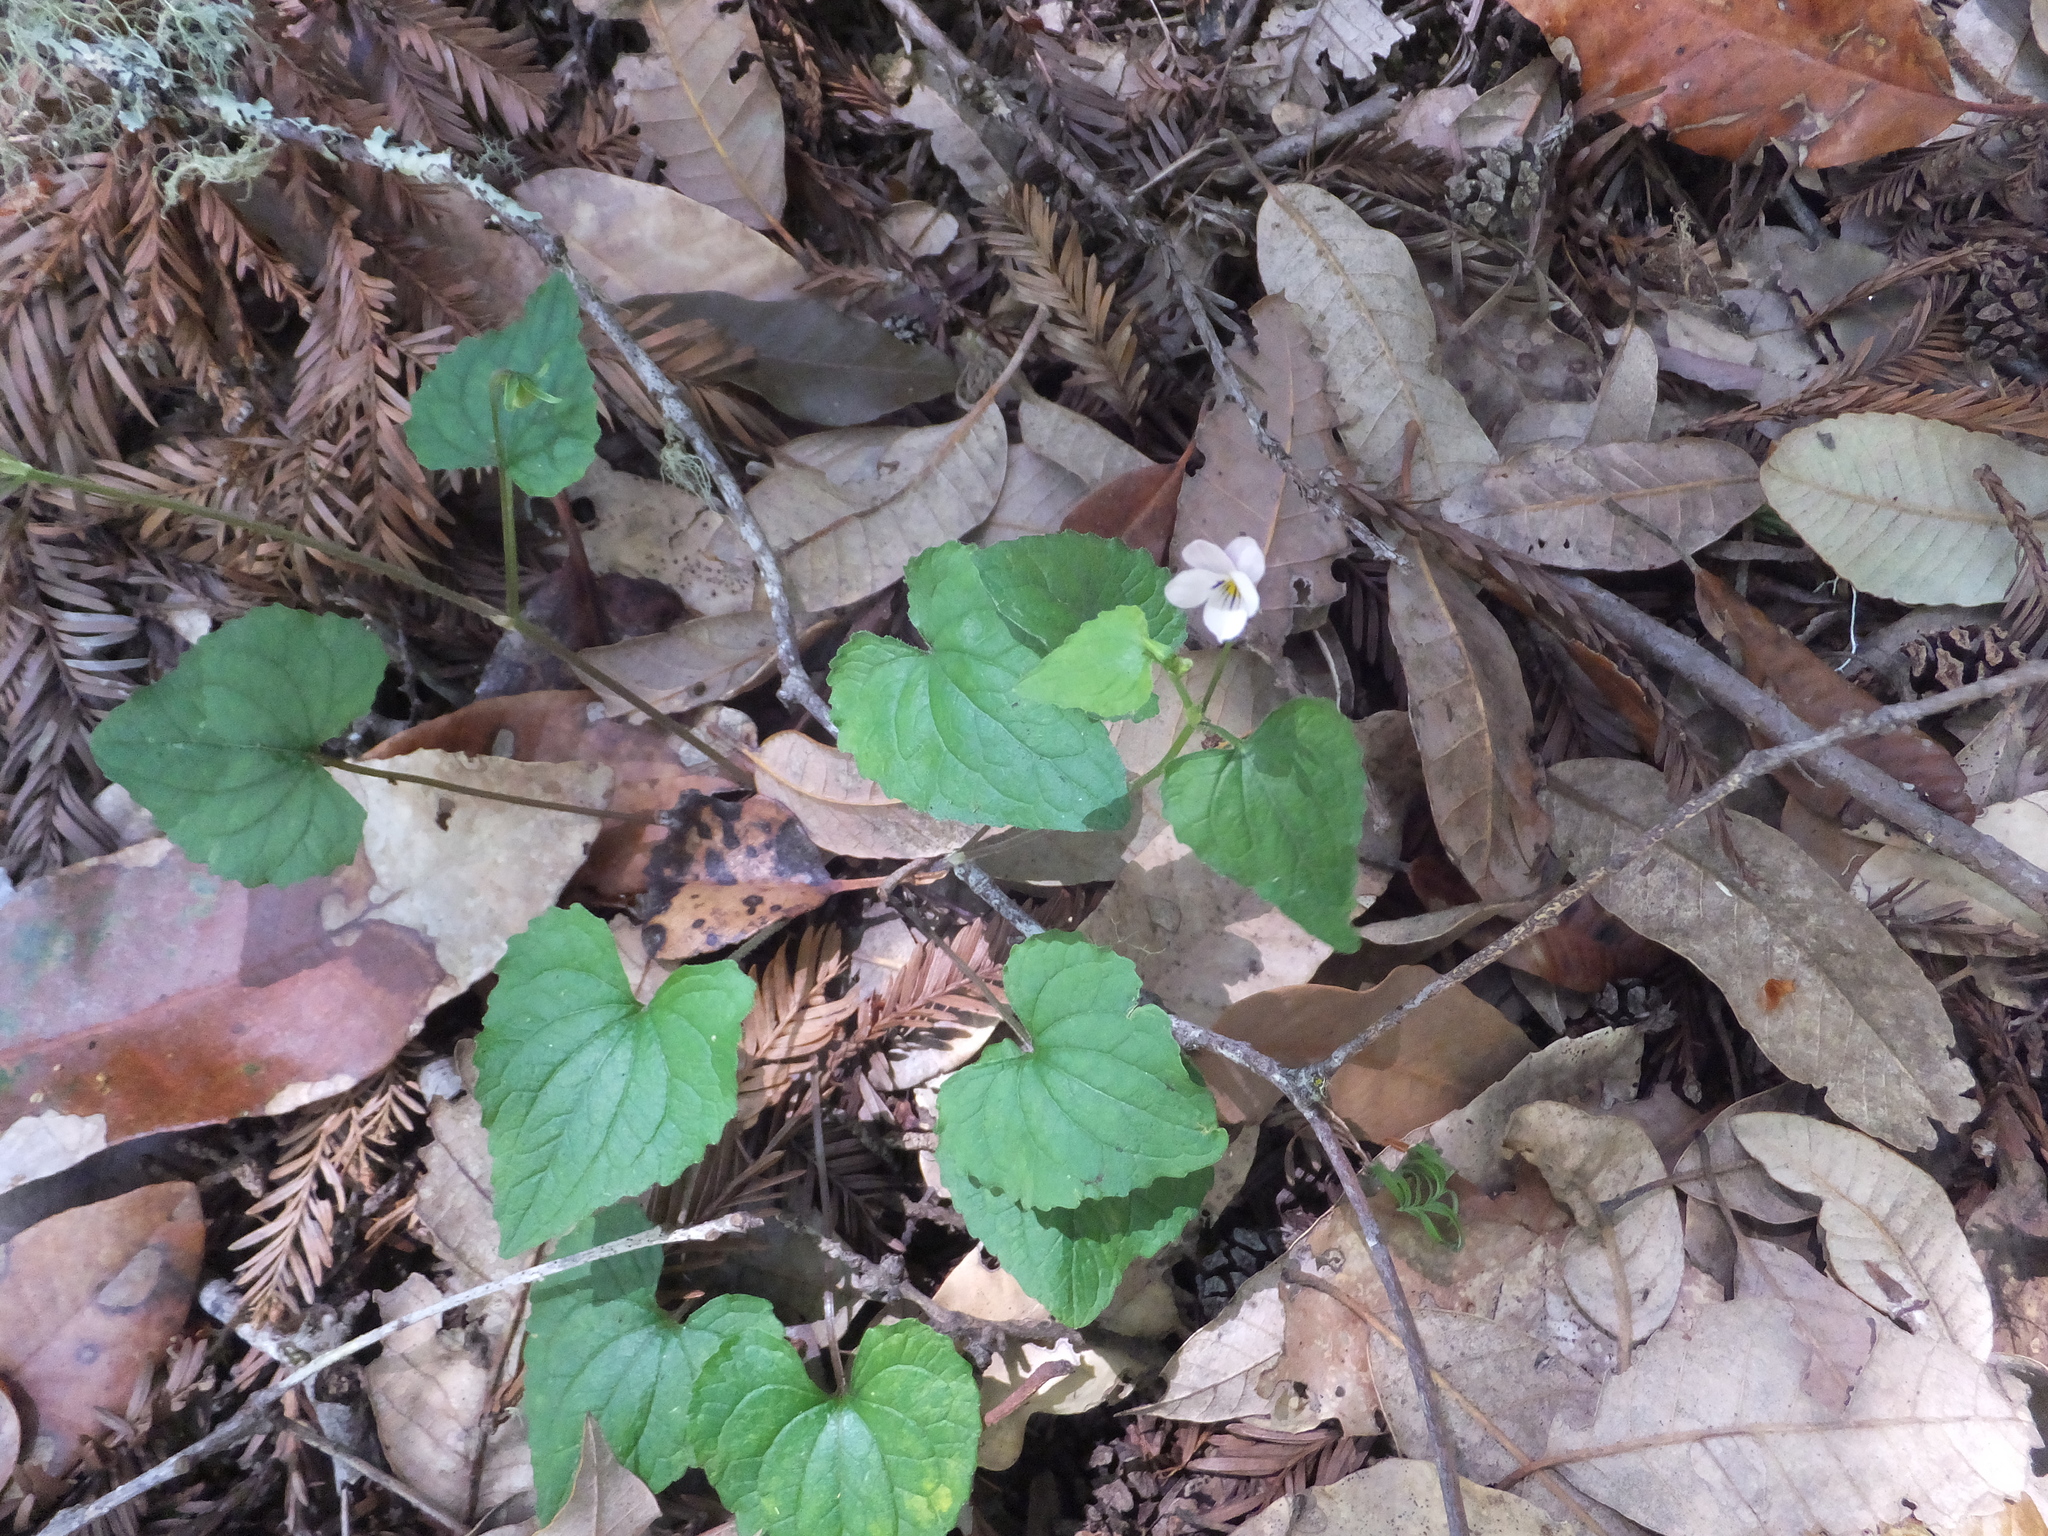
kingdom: Plantae
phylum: Tracheophyta
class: Magnoliopsida
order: Malpighiales
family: Violaceae
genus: Viola
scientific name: Viola ocellata
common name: Western heart's ease
